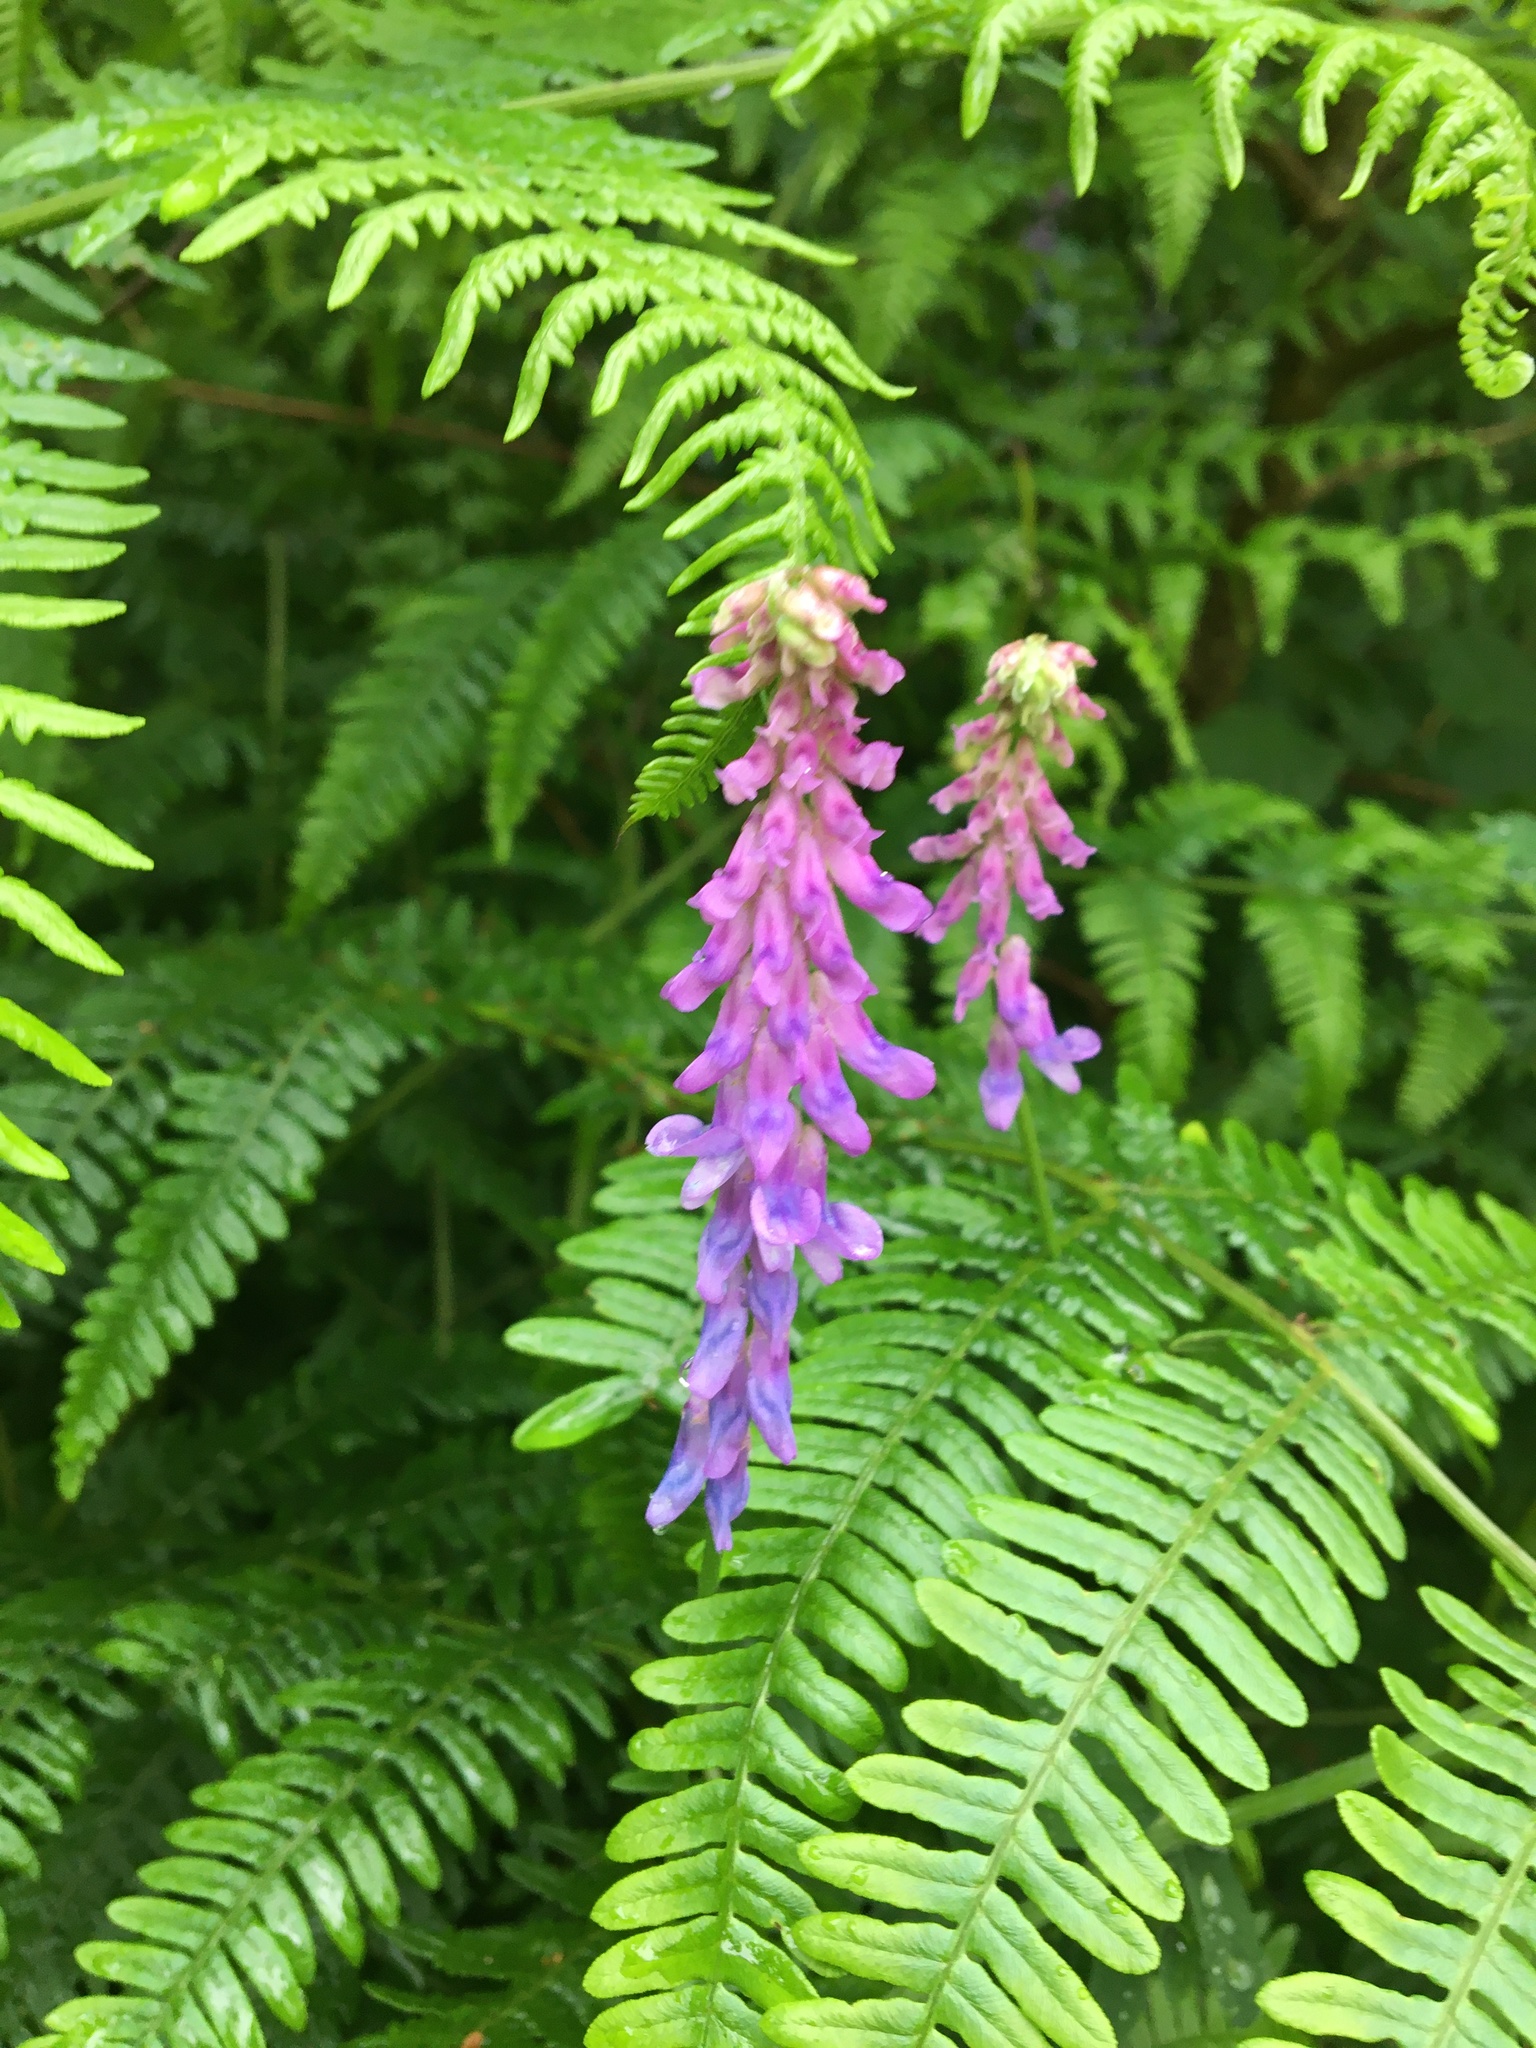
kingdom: Plantae
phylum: Tracheophyta
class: Magnoliopsida
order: Fabales
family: Fabaceae
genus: Vicia
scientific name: Vicia cracca
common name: Bird vetch
